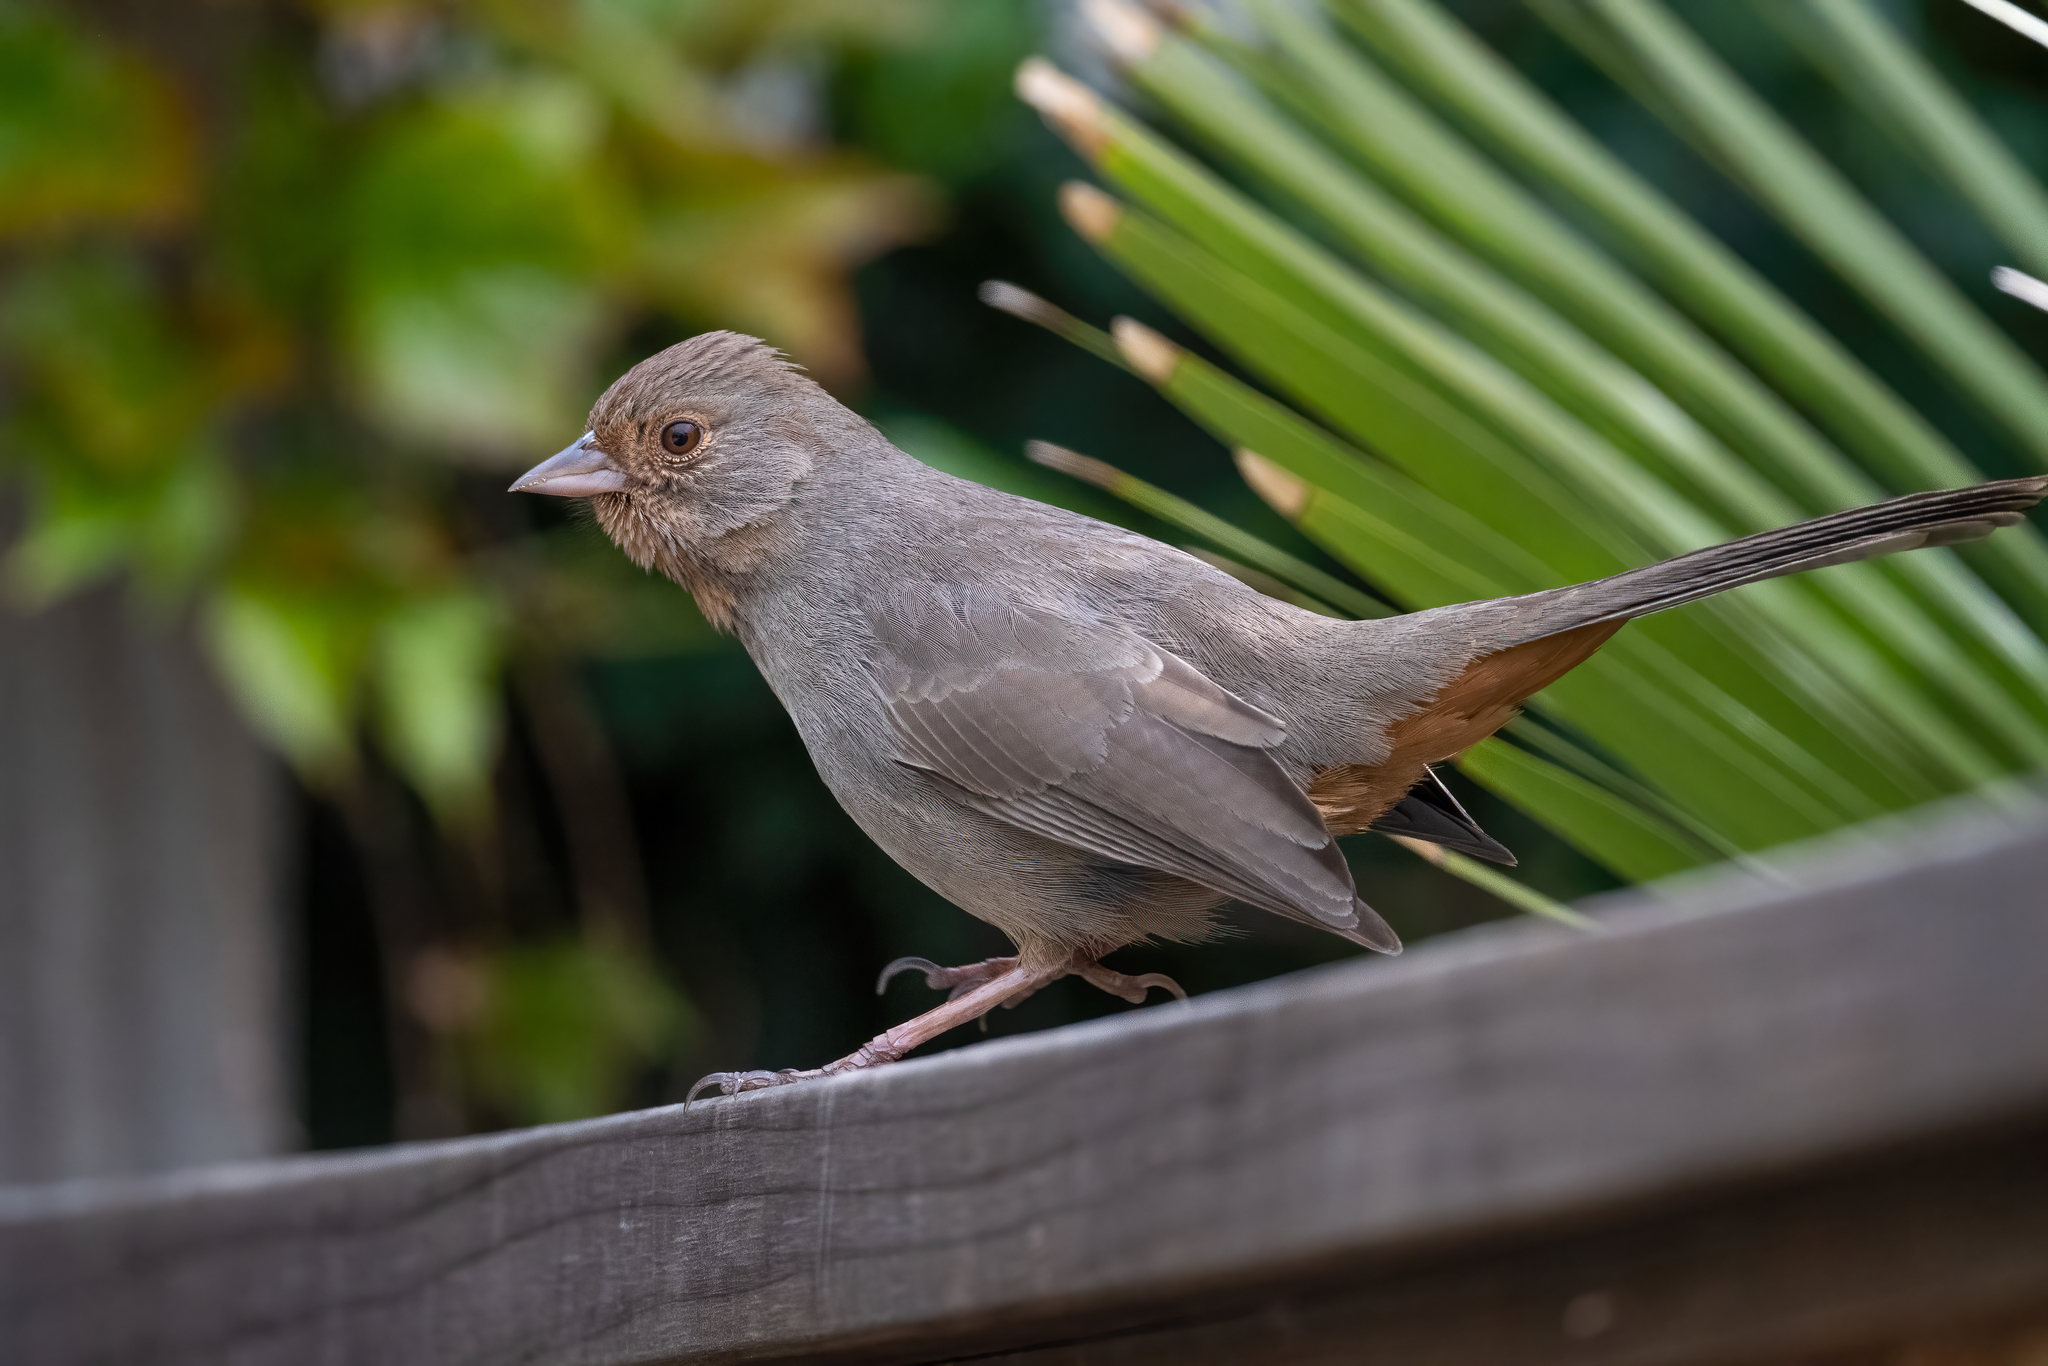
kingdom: Animalia
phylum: Chordata
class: Aves
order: Passeriformes
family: Passerellidae
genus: Melozone
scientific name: Melozone crissalis
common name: California towhee
